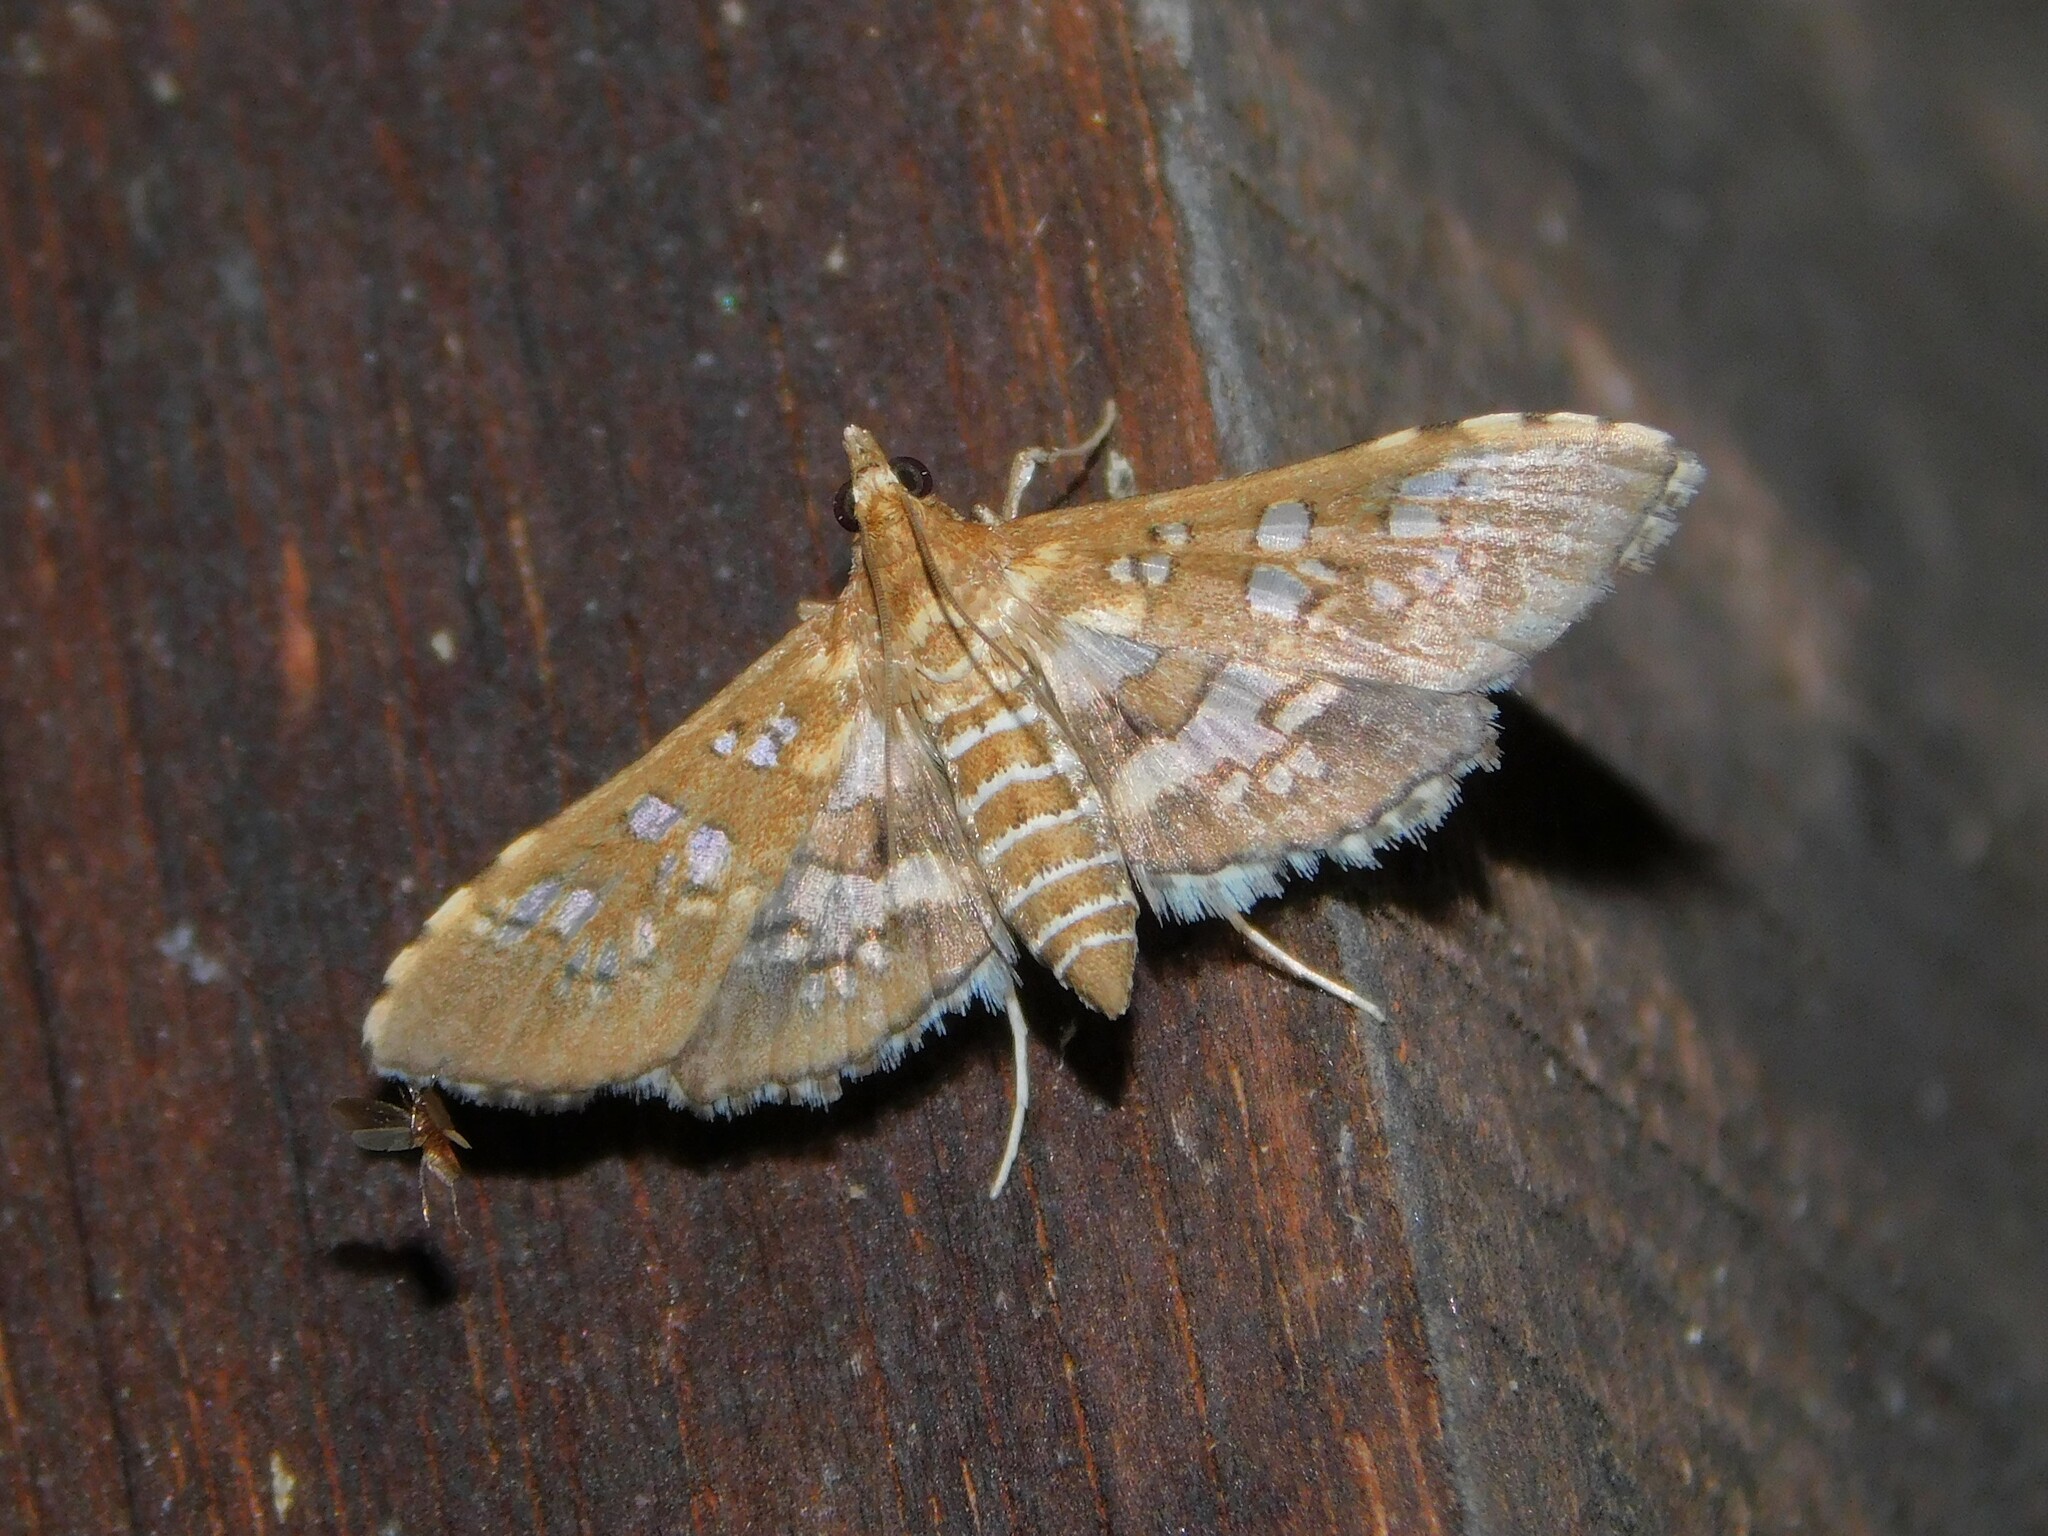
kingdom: Animalia
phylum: Arthropoda
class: Insecta
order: Lepidoptera
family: Crambidae
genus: Sameodes
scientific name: Sameodes cancellalis
